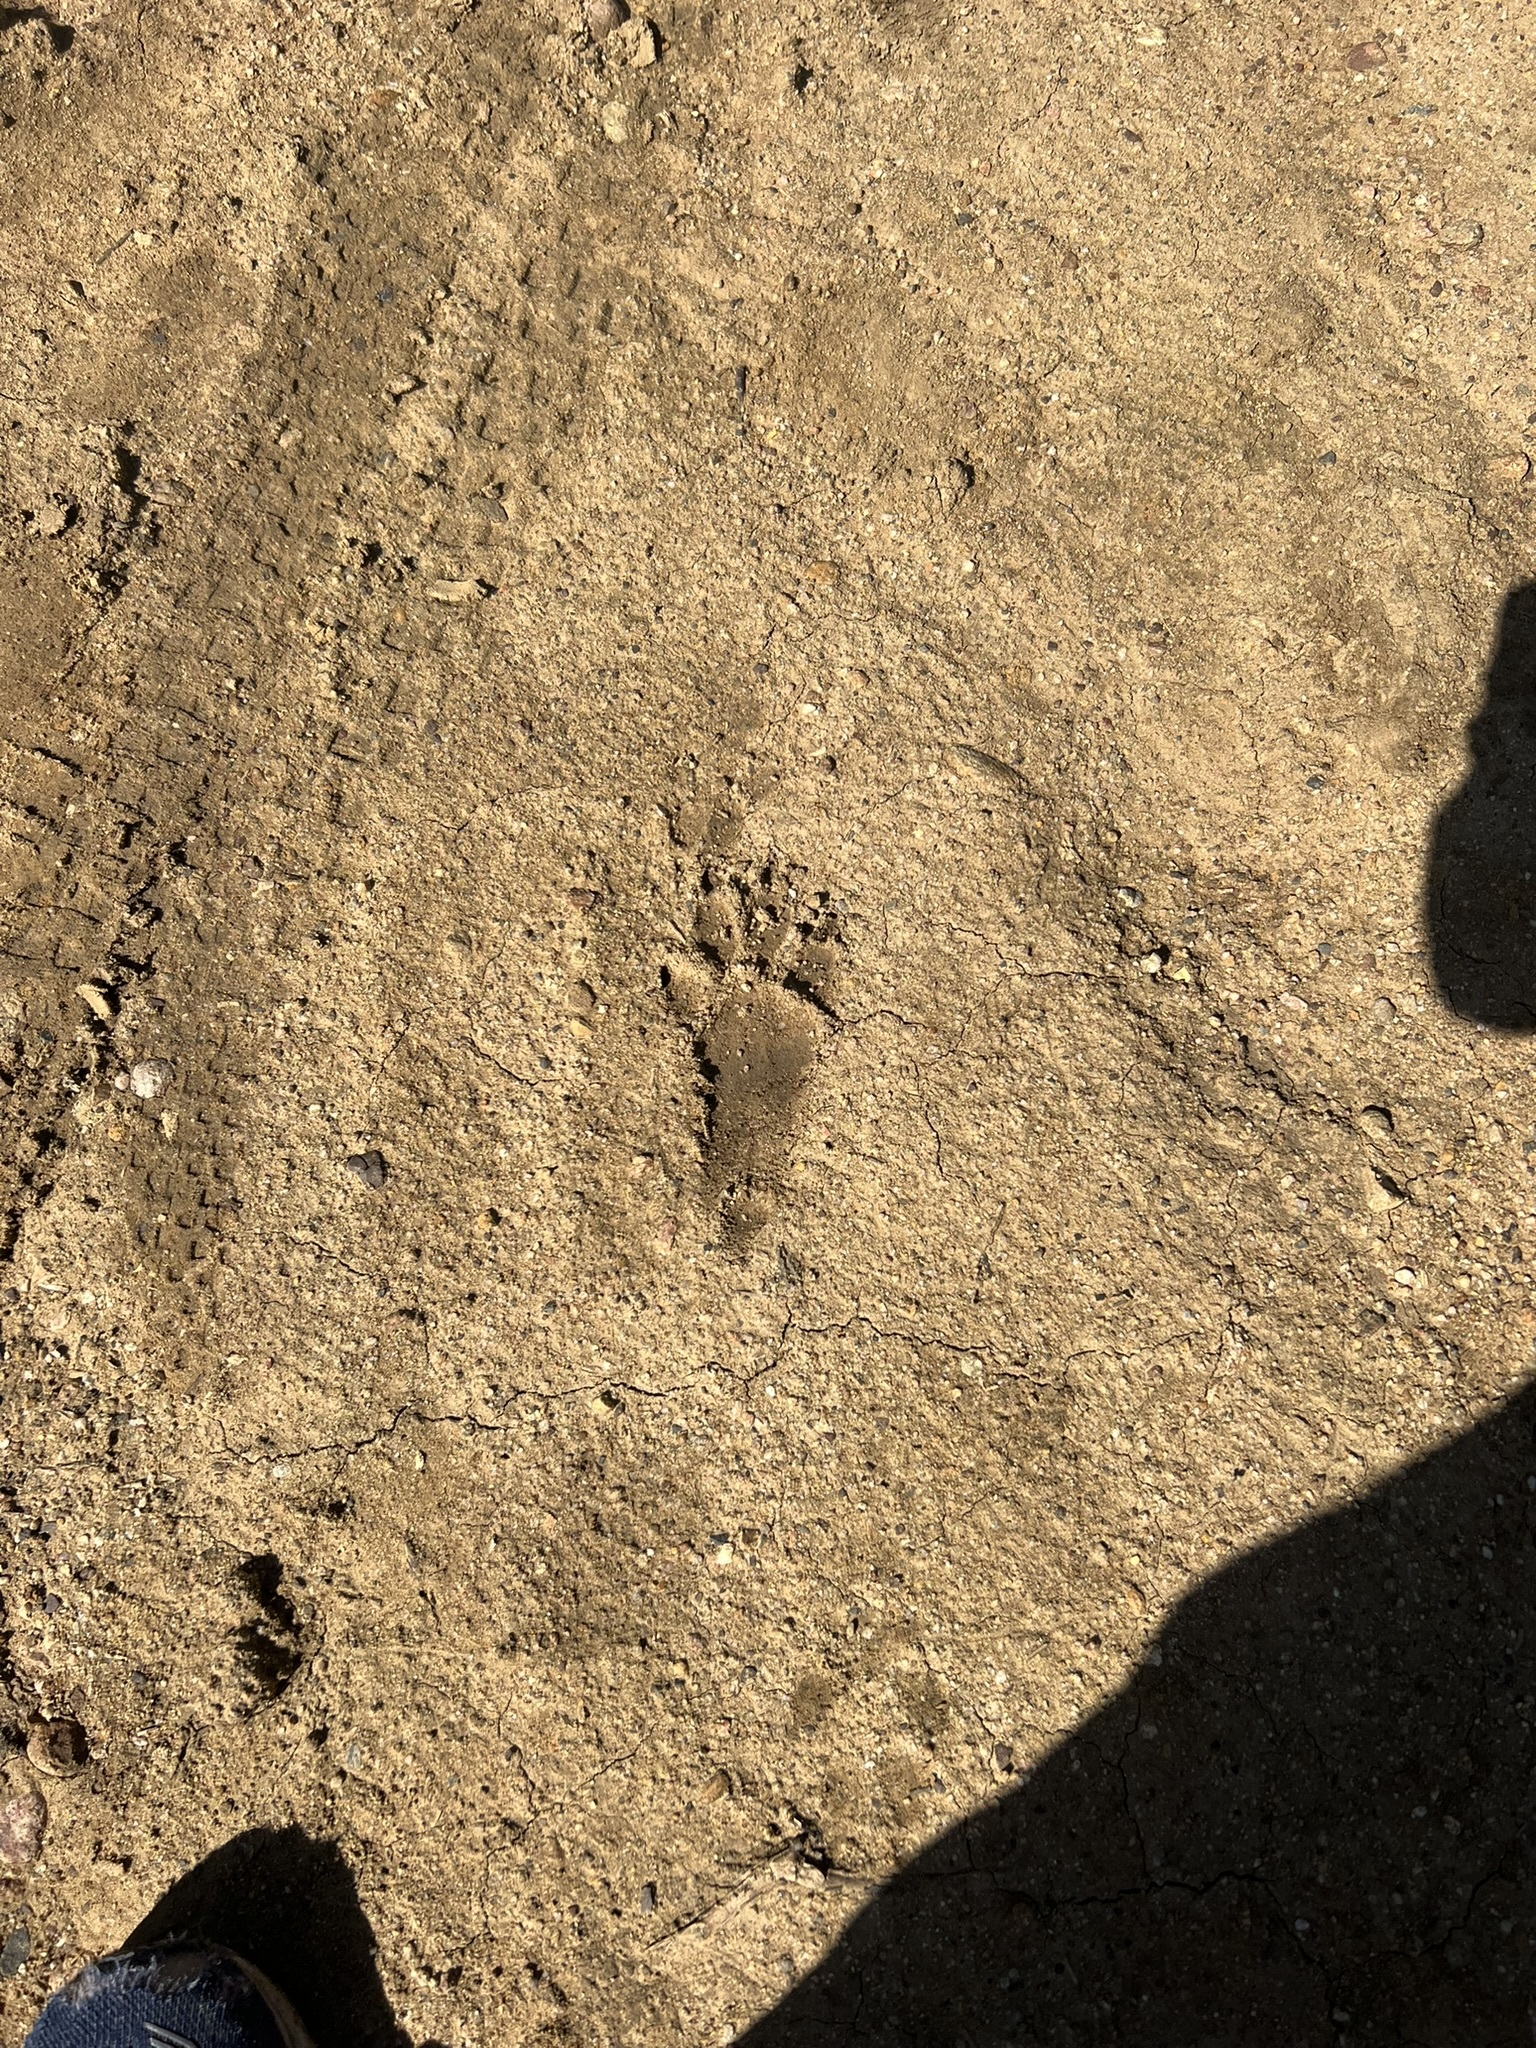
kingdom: Animalia
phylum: Chordata
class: Mammalia
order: Carnivora
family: Procyonidae
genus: Procyon
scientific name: Procyon lotor
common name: Raccoon
